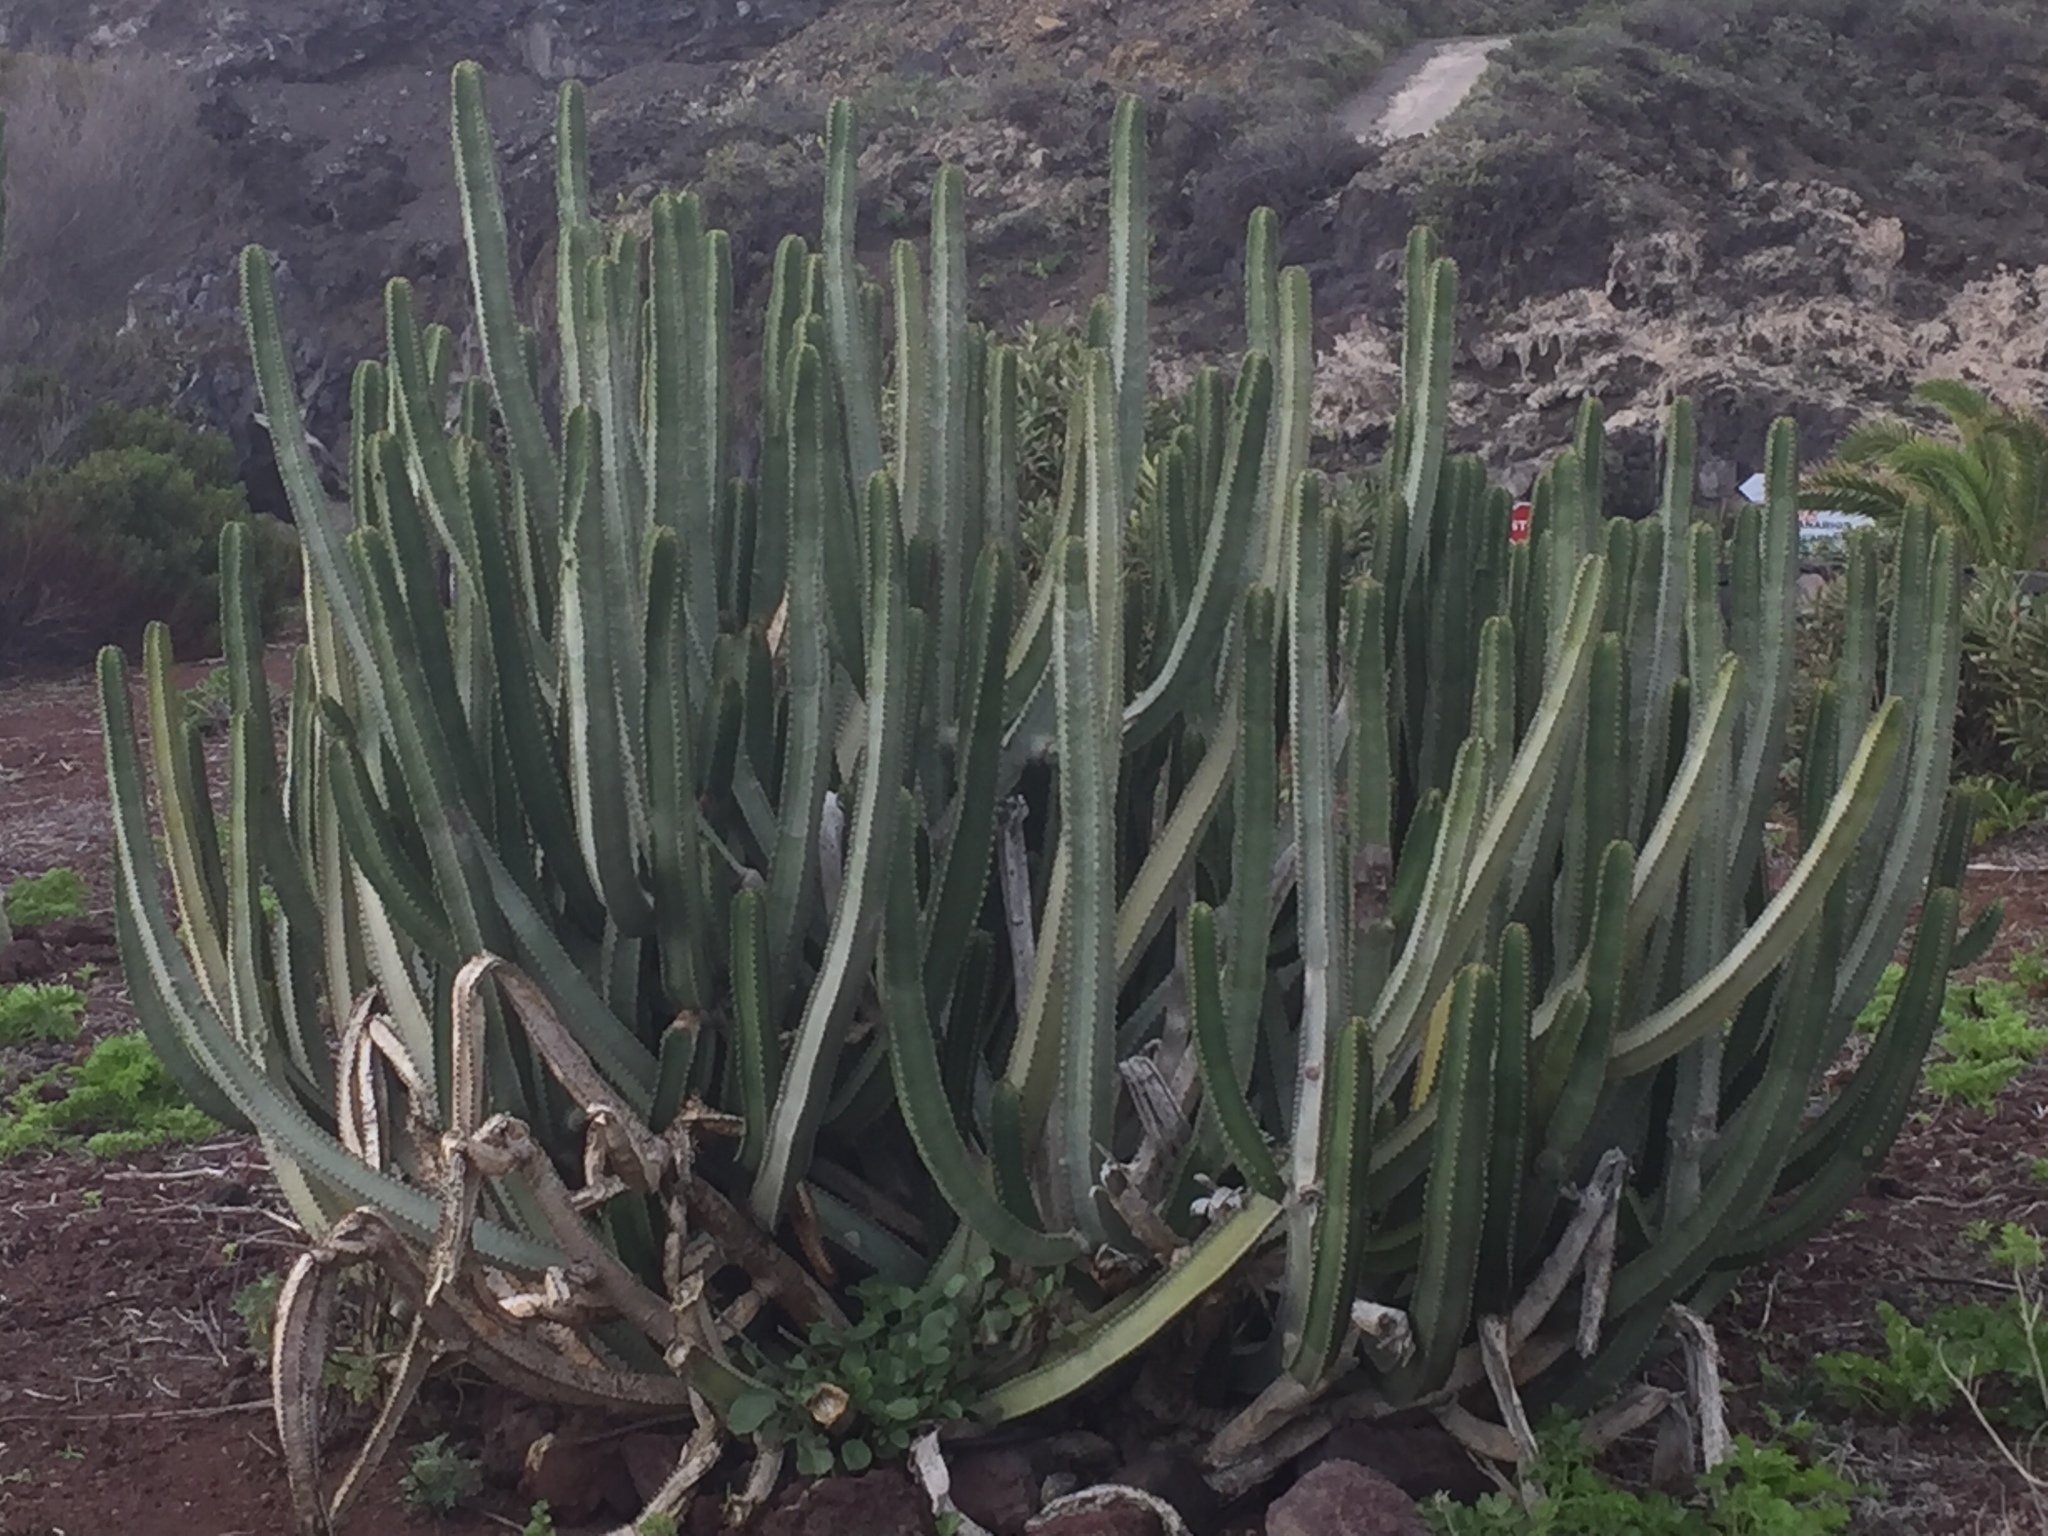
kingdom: Plantae
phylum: Tracheophyta
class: Magnoliopsida
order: Malpighiales
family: Euphorbiaceae
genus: Euphorbia
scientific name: Euphorbia canariensis
